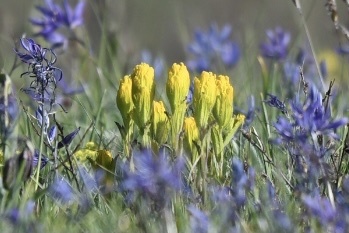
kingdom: Plantae
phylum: Tracheophyta
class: Magnoliopsida
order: Lamiales
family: Orobanchaceae
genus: Castilleja
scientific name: Castilleja levisecta
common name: Golden paintbrush
